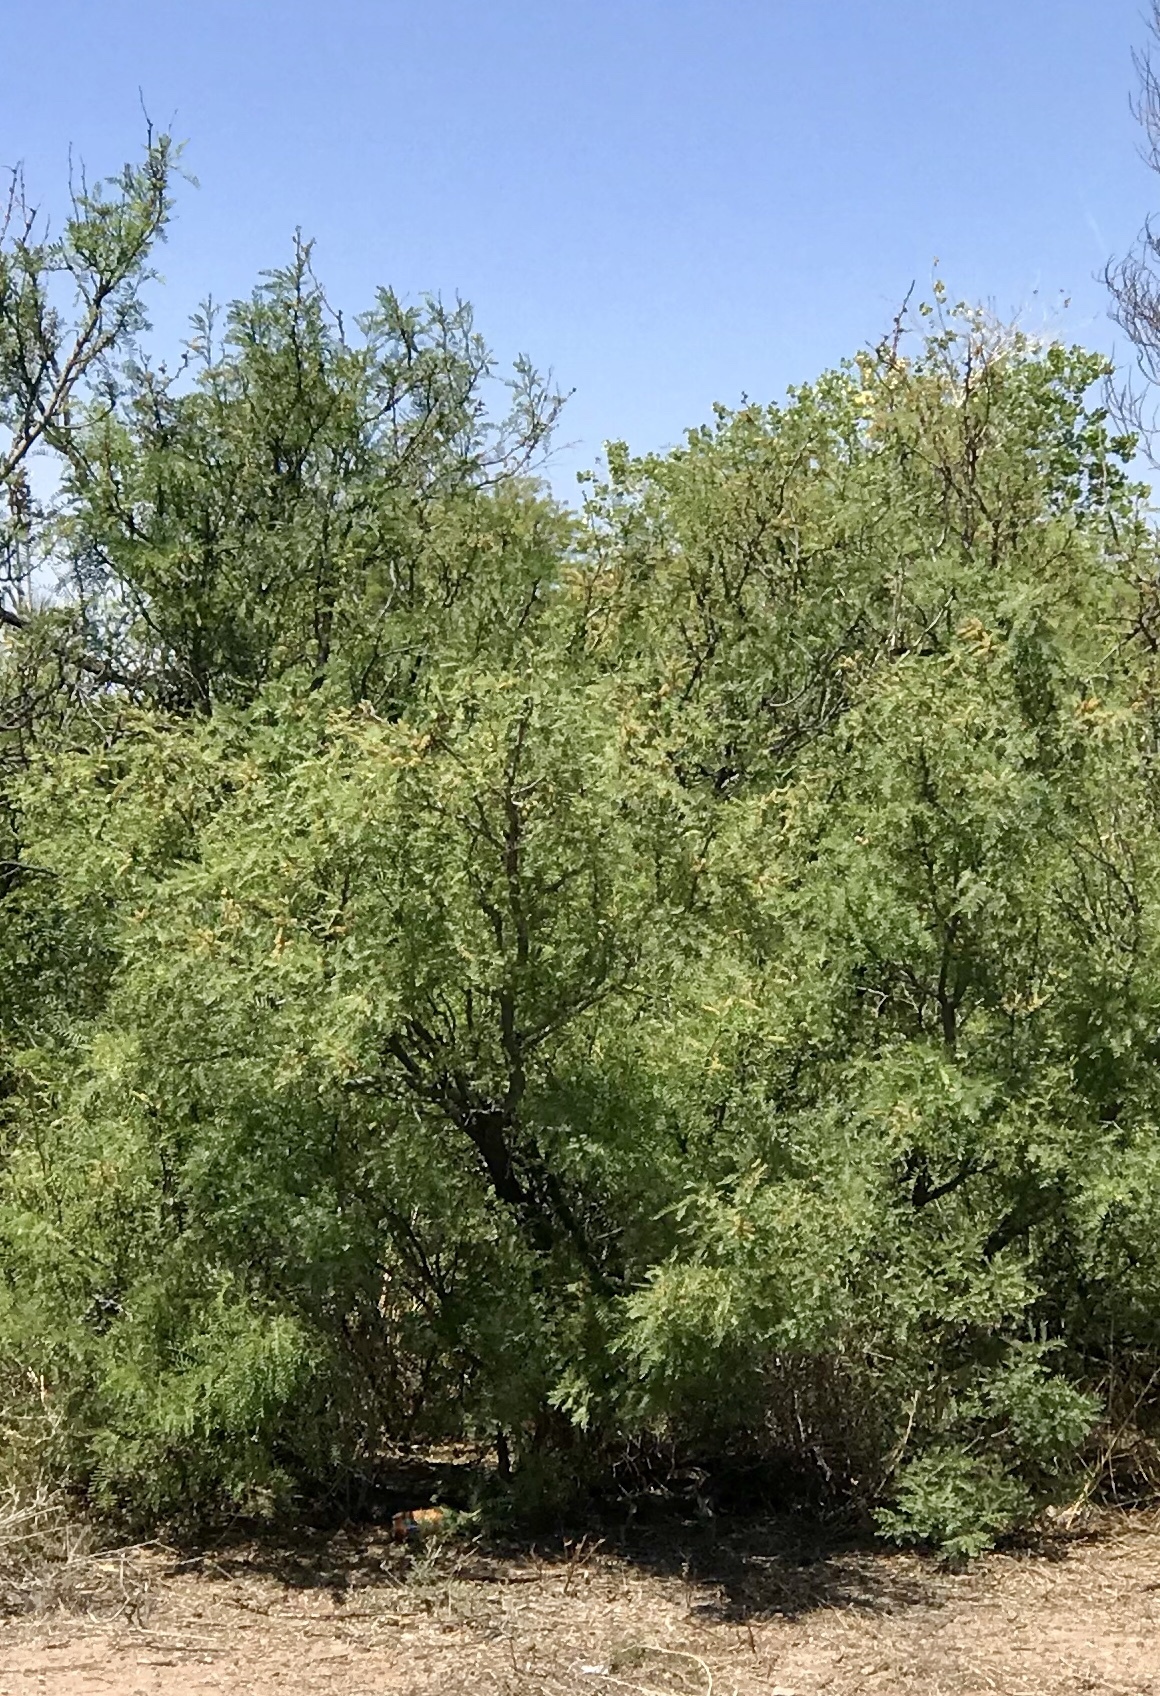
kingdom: Plantae
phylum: Tracheophyta
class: Magnoliopsida
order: Fabales
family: Fabaceae
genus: Prosopis
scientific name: Prosopis glandulosa
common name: Honey mesquite
